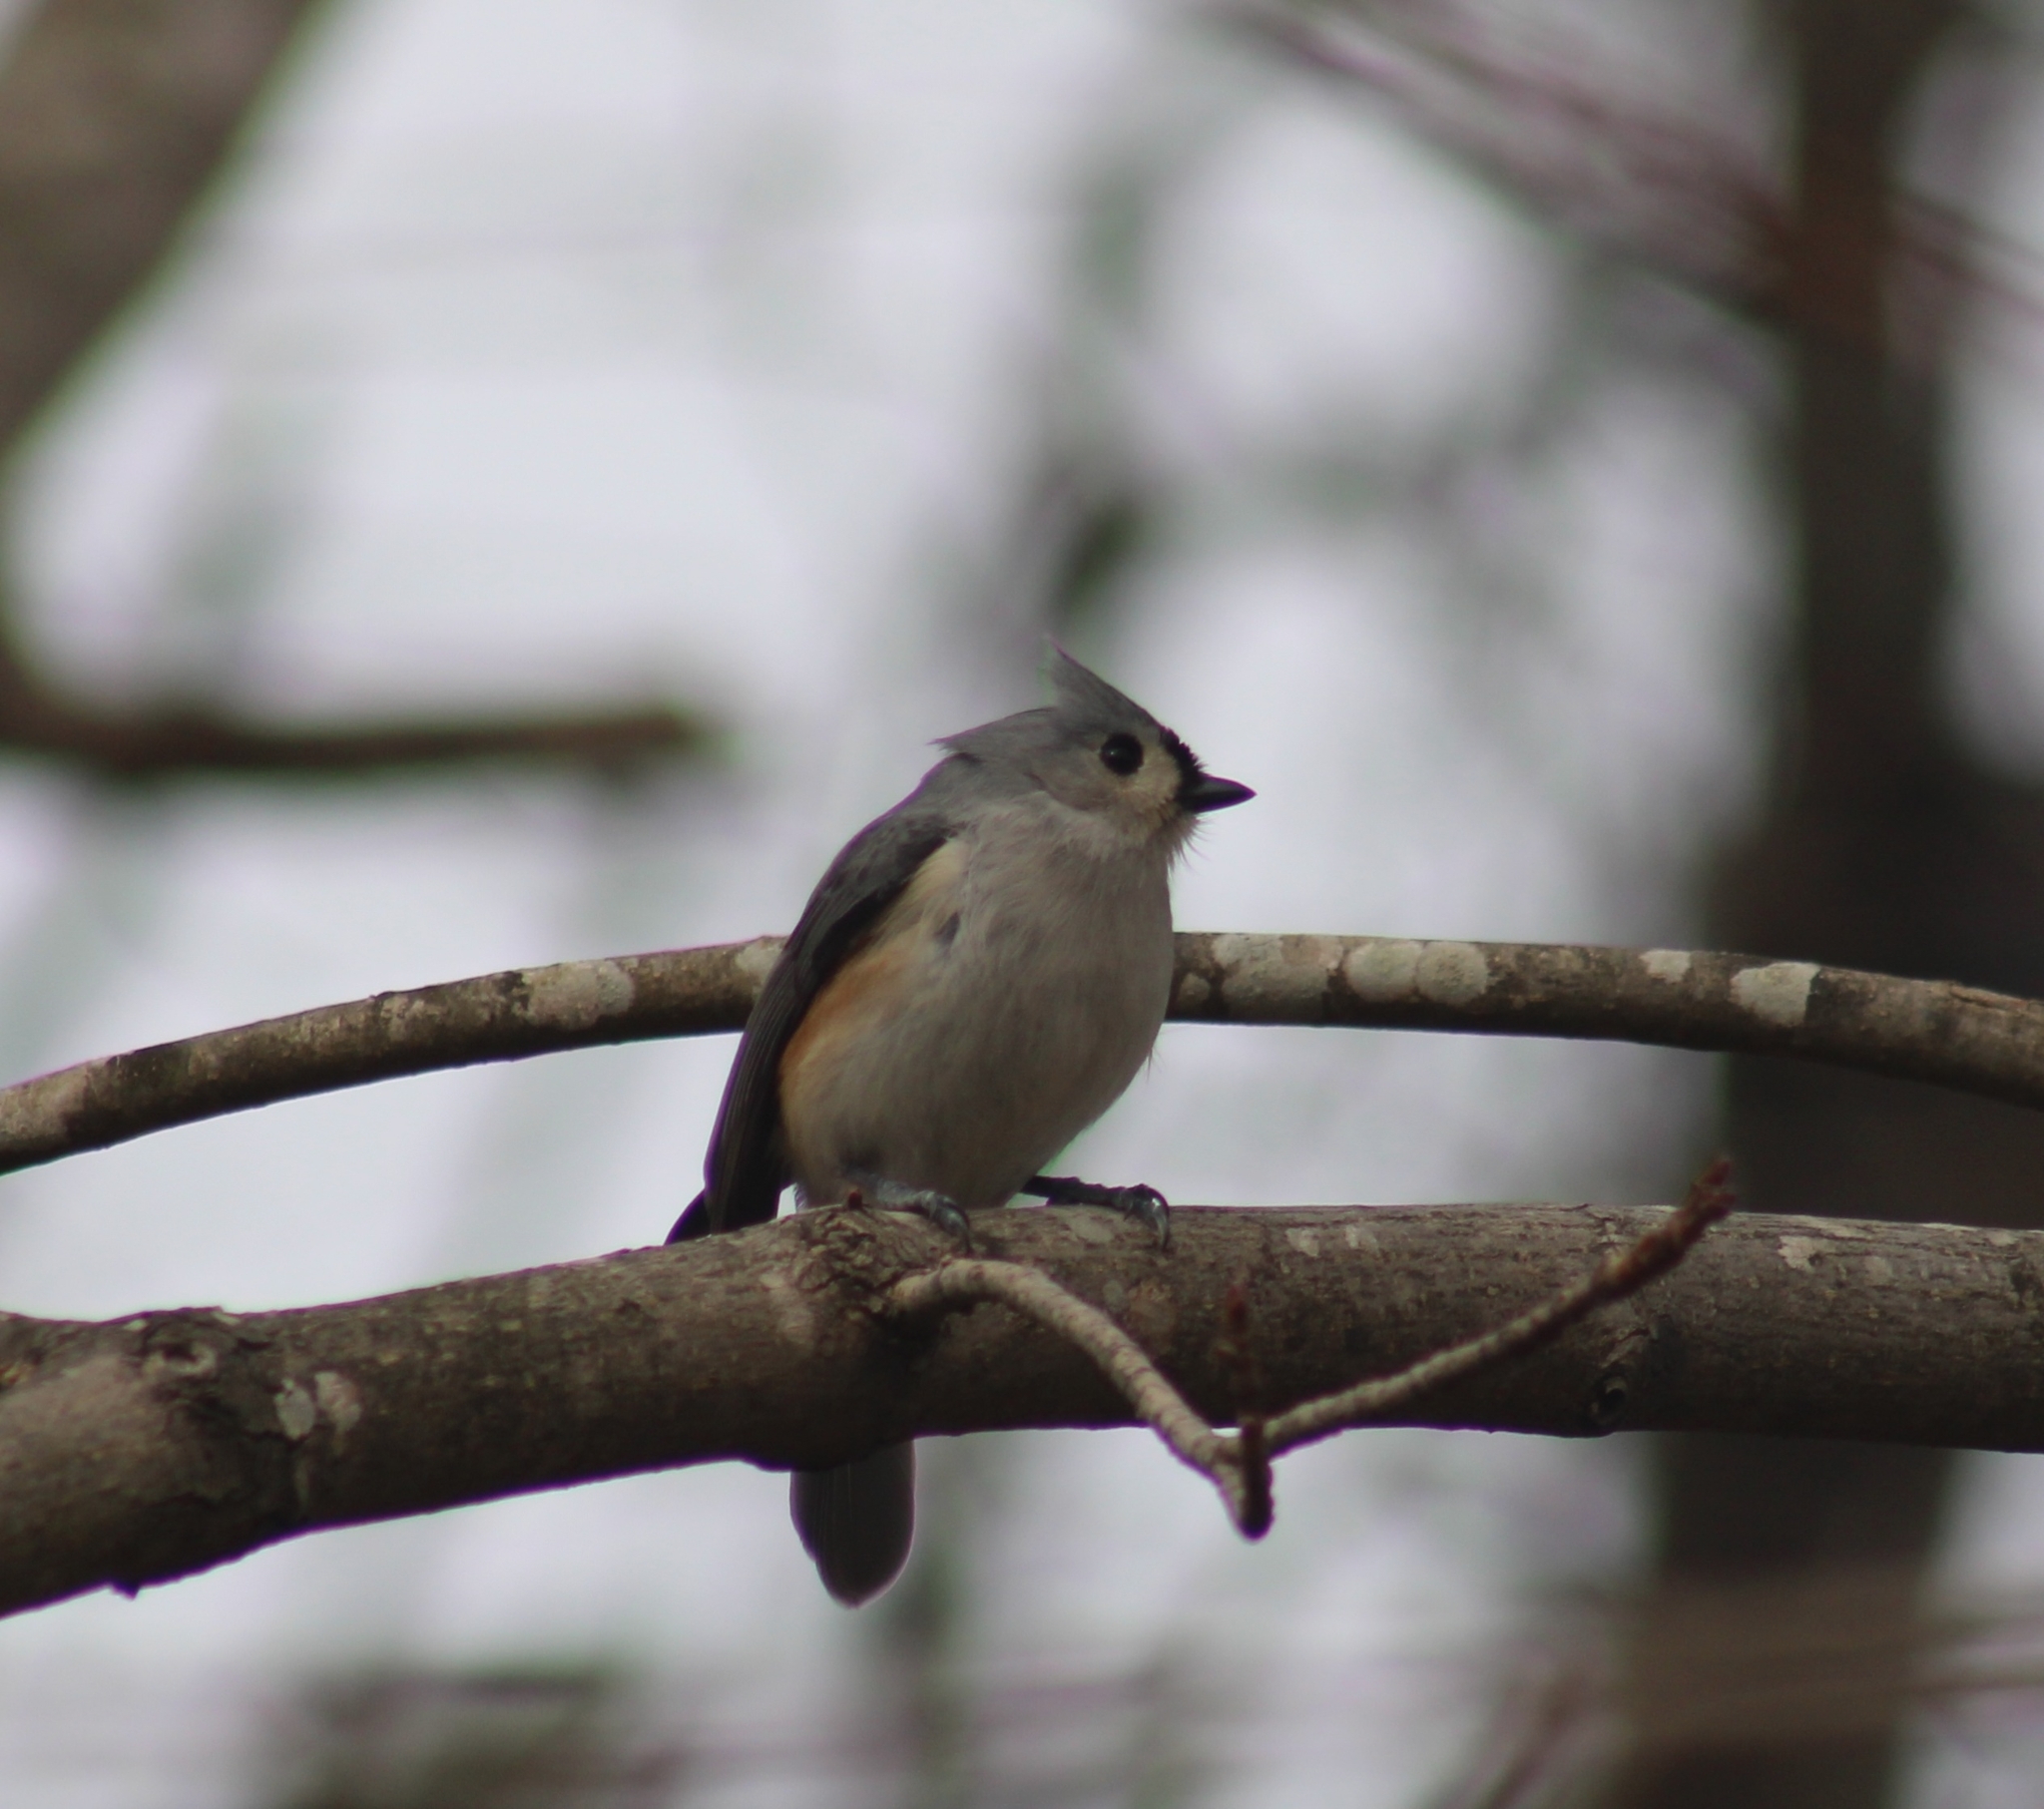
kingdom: Animalia
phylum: Chordata
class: Aves
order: Passeriformes
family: Paridae
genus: Baeolophus
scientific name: Baeolophus bicolor
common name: Tufted titmouse
